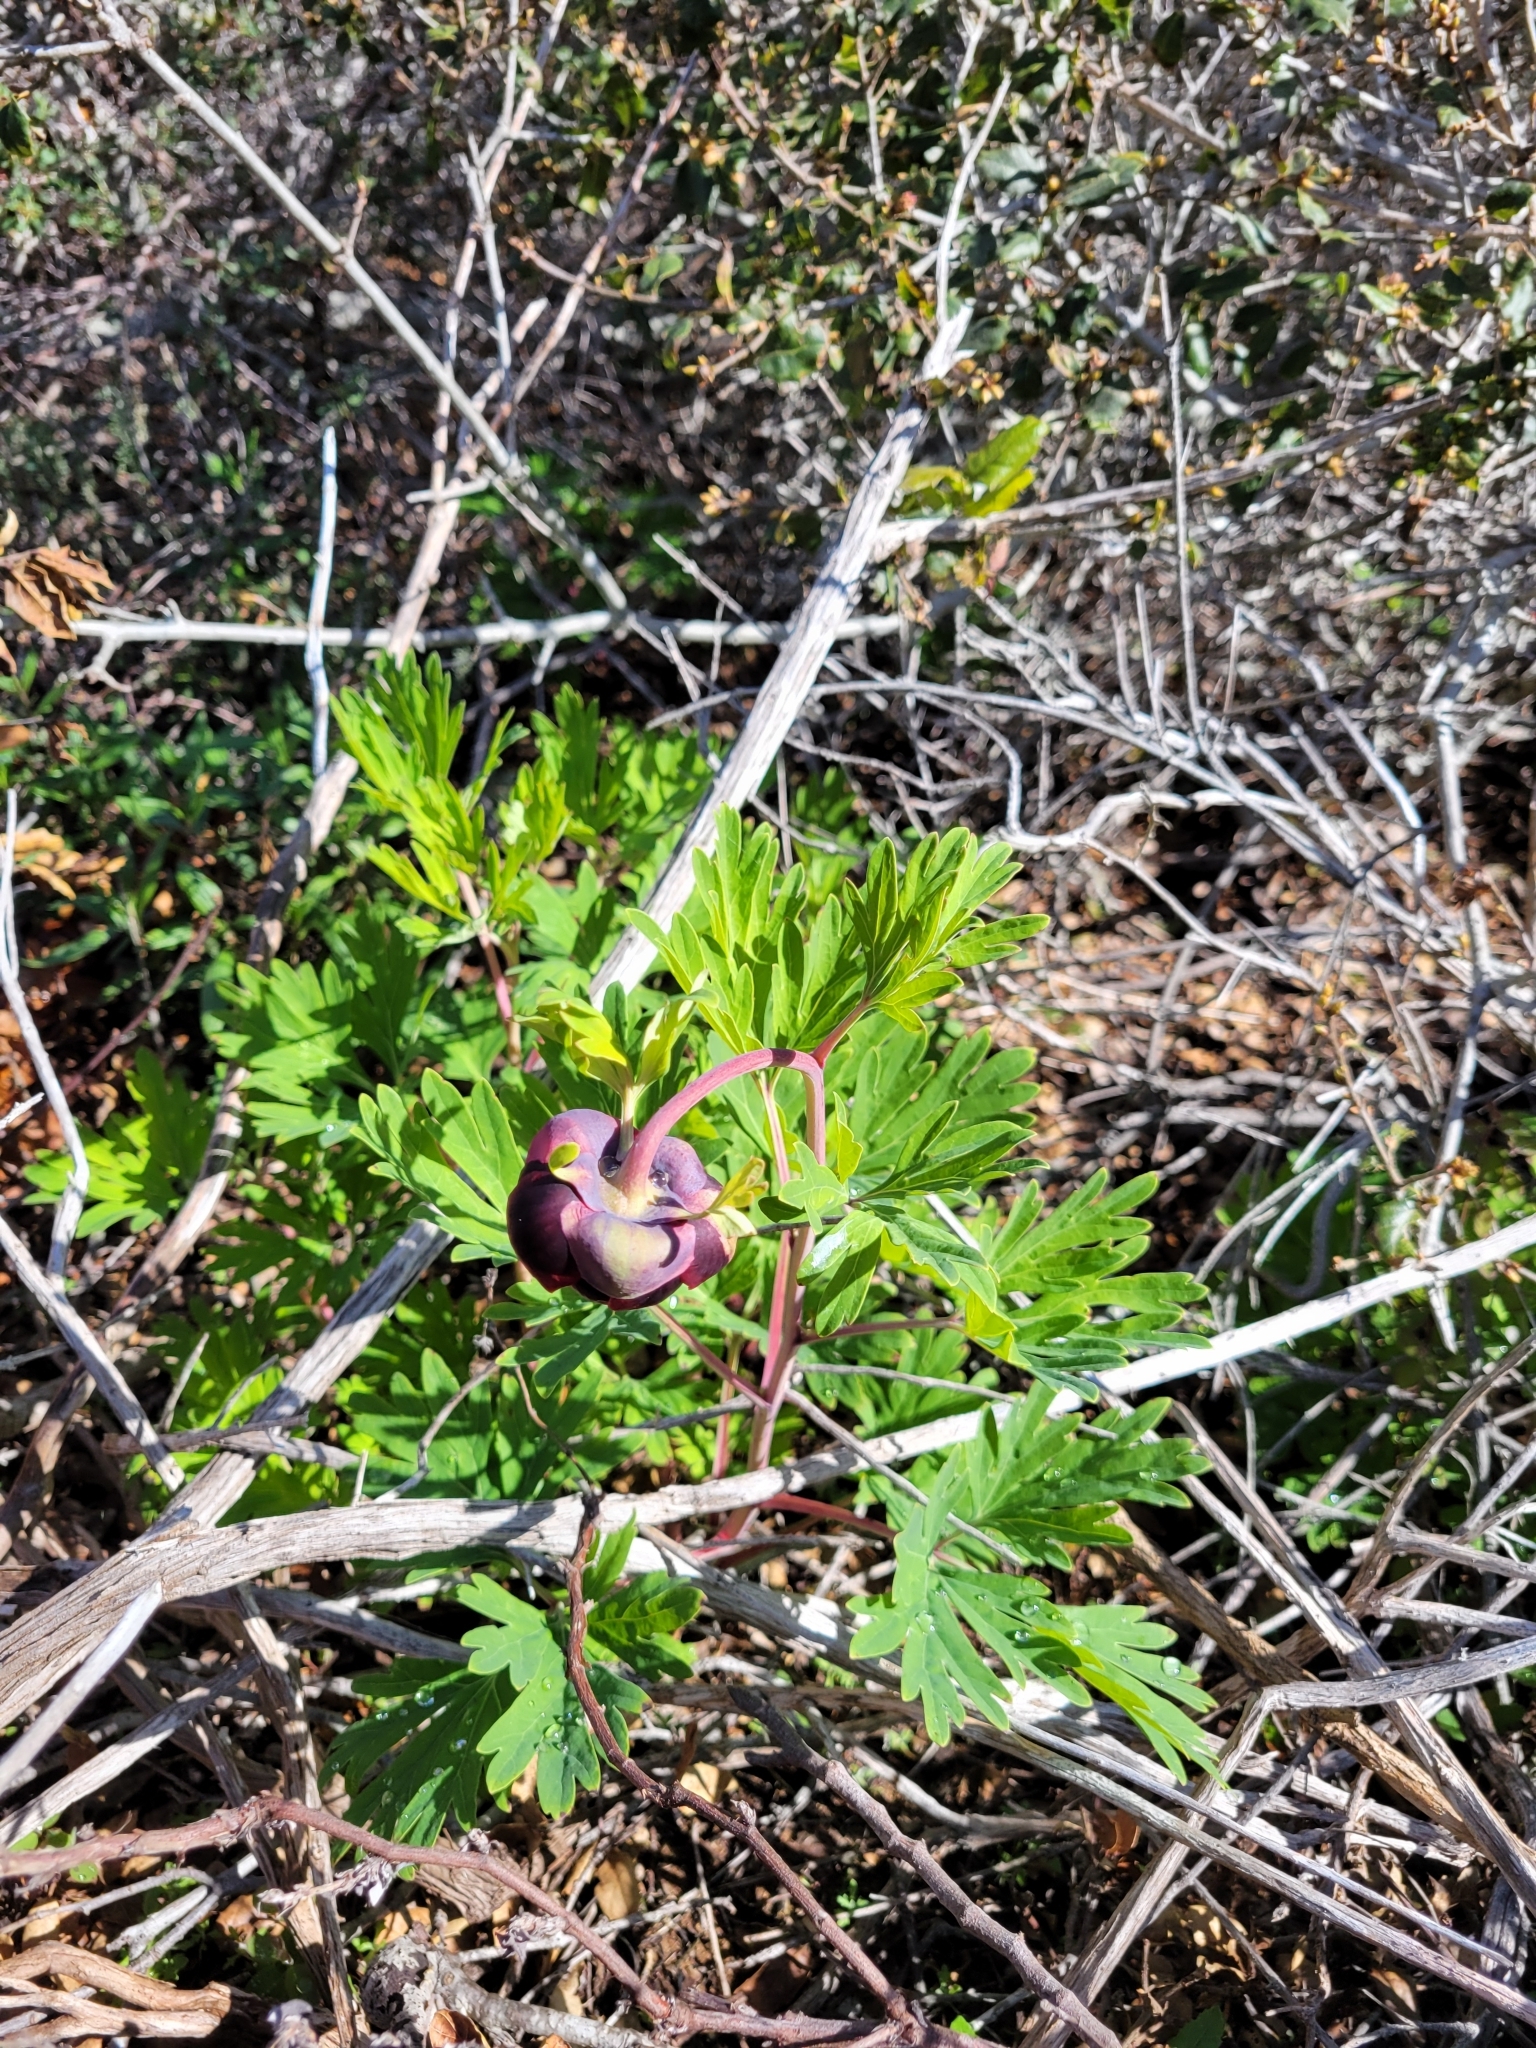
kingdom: Plantae
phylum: Tracheophyta
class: Magnoliopsida
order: Saxifragales
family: Paeoniaceae
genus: Paeonia
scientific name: Paeonia californica
